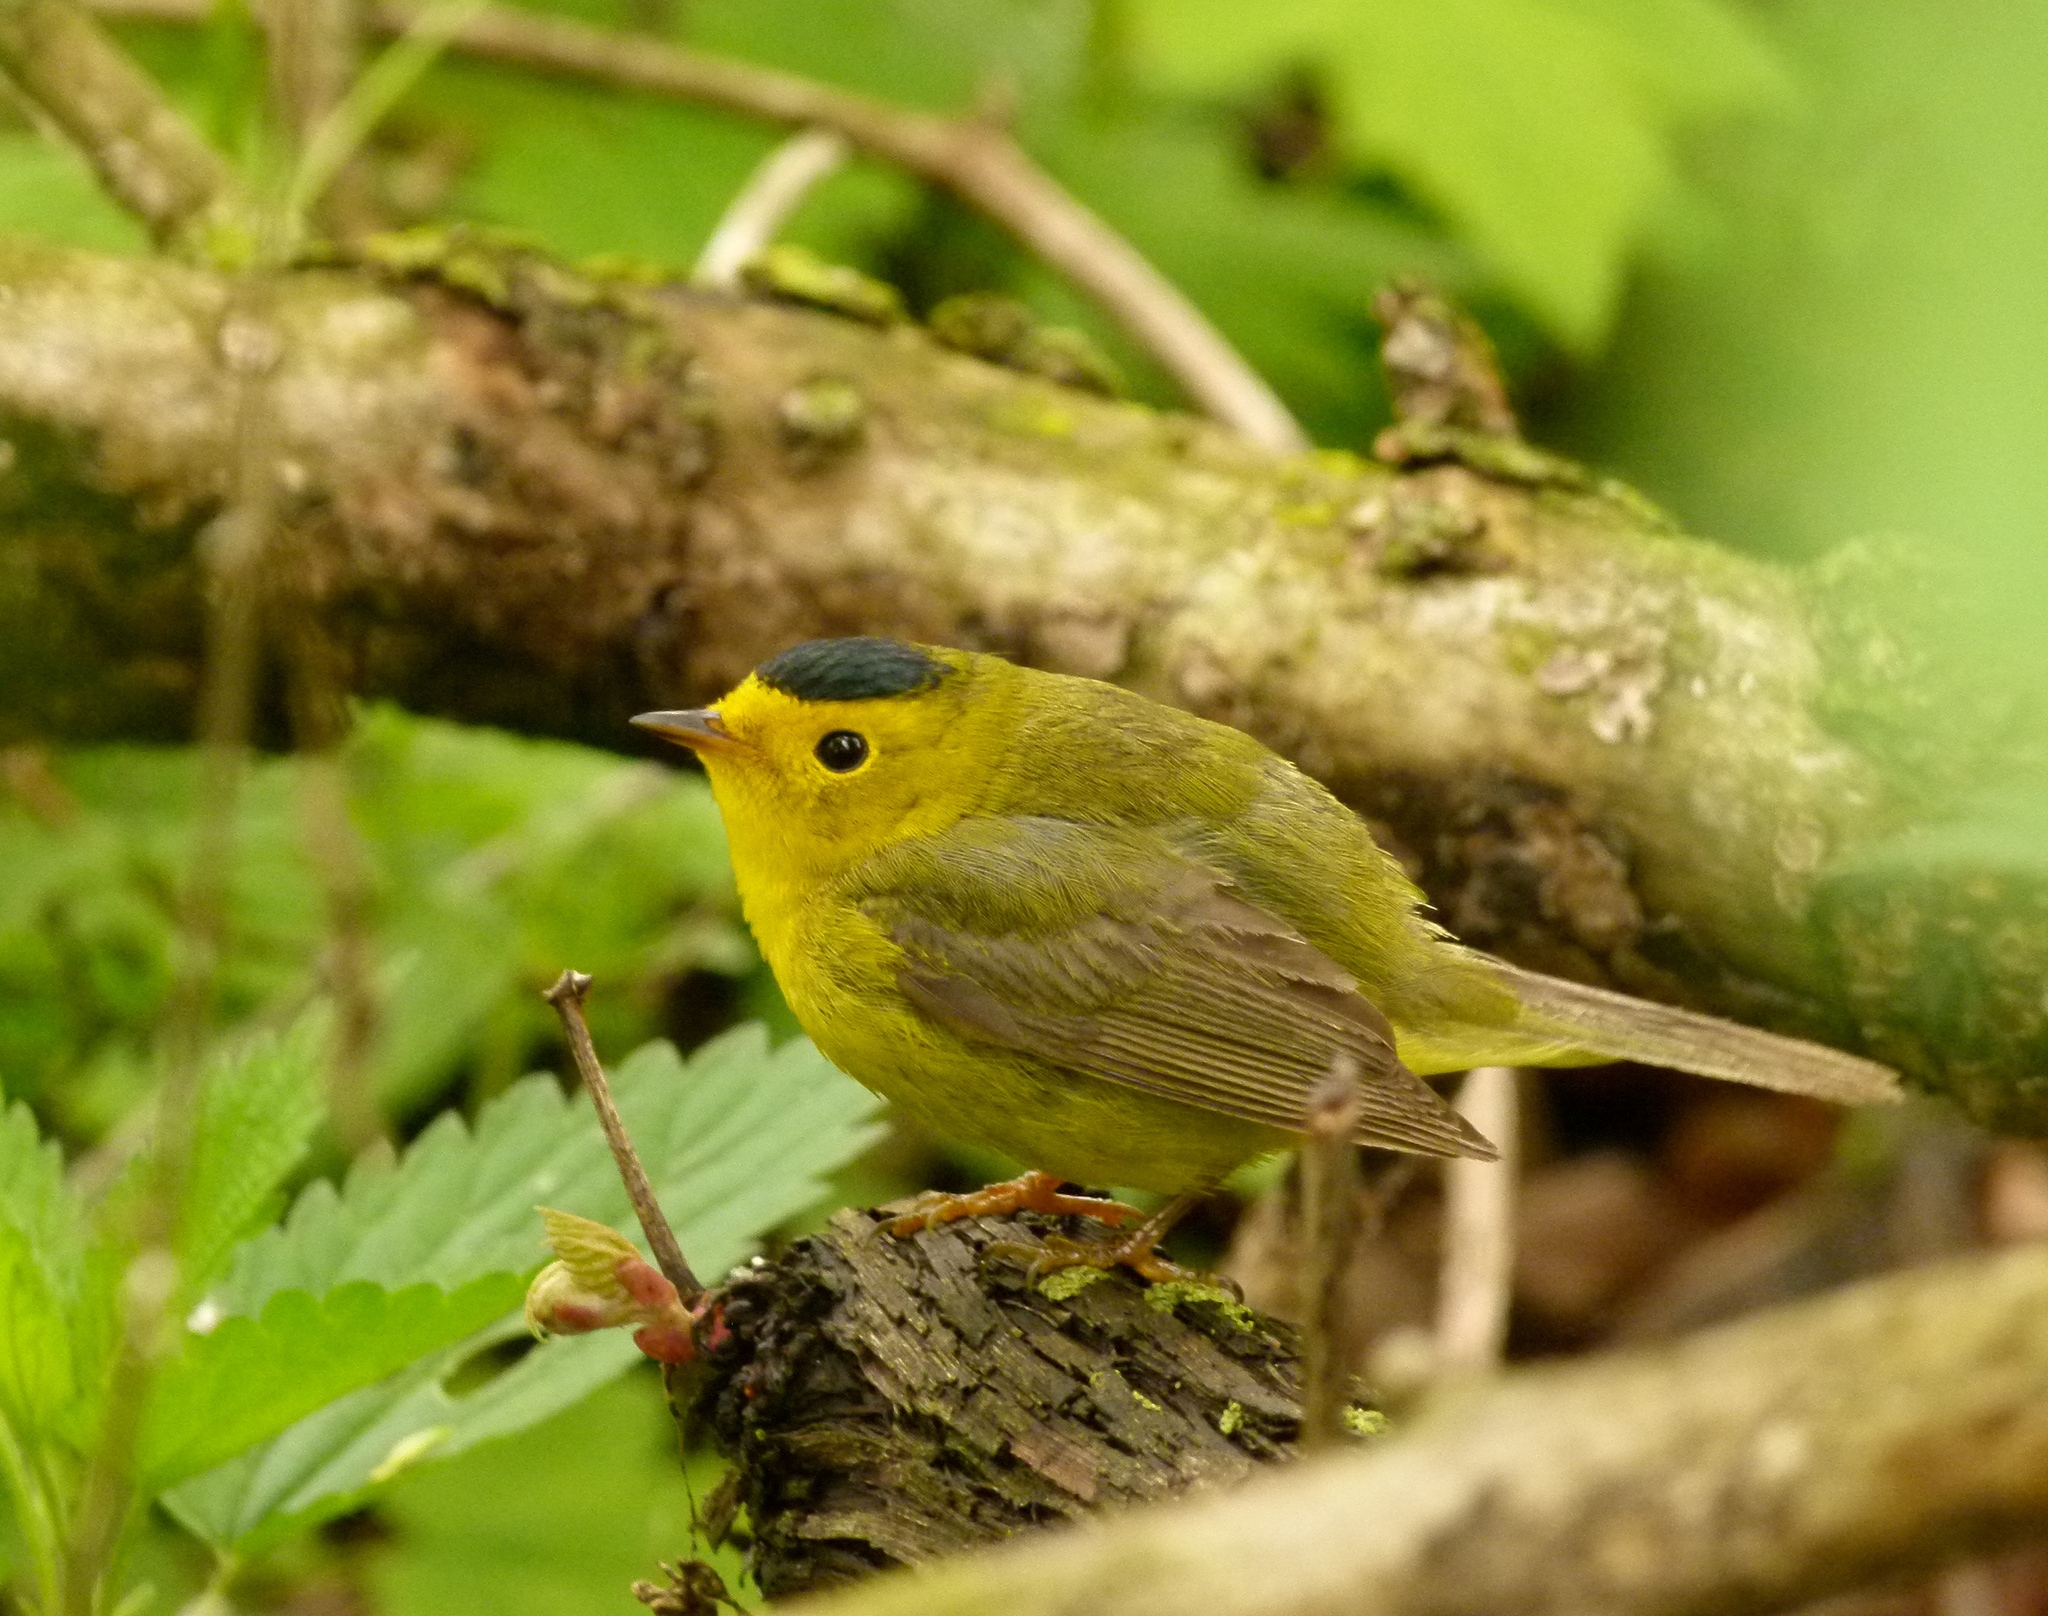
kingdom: Animalia
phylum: Chordata
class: Aves
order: Passeriformes
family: Parulidae
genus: Cardellina
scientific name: Cardellina pusilla
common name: Wilson's warbler
